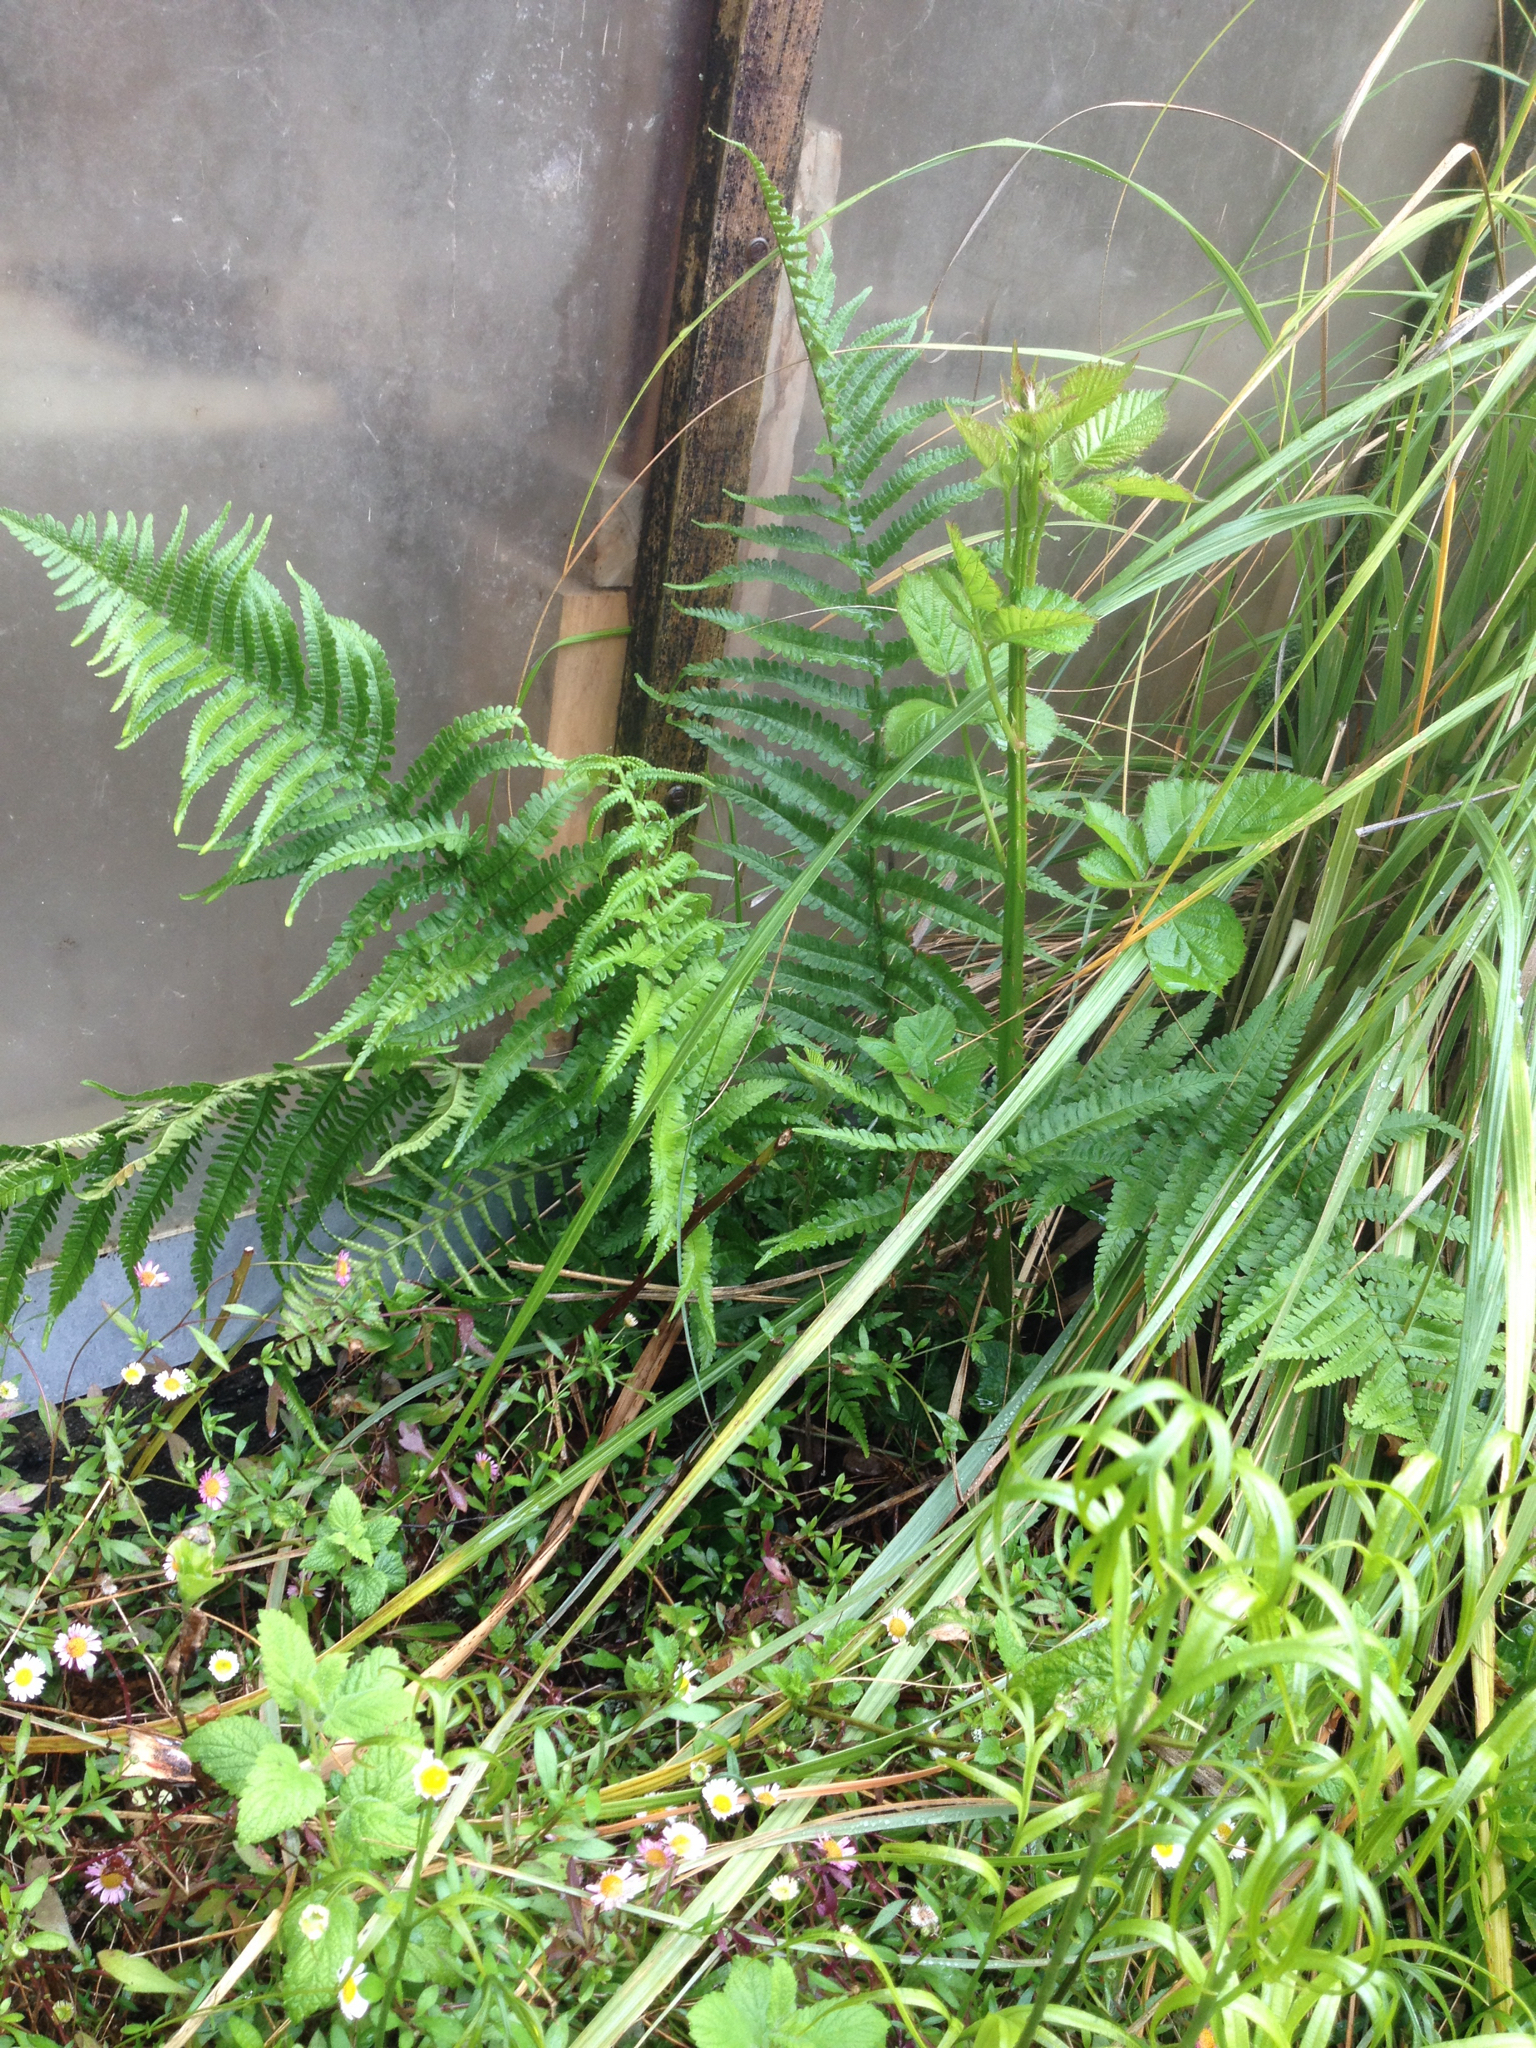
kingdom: Plantae
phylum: Tracheophyta
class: Polypodiopsida
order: Polypodiales
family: Dryopteridaceae
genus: Dryopteris
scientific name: Dryopteris filix-mas
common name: Male fern
